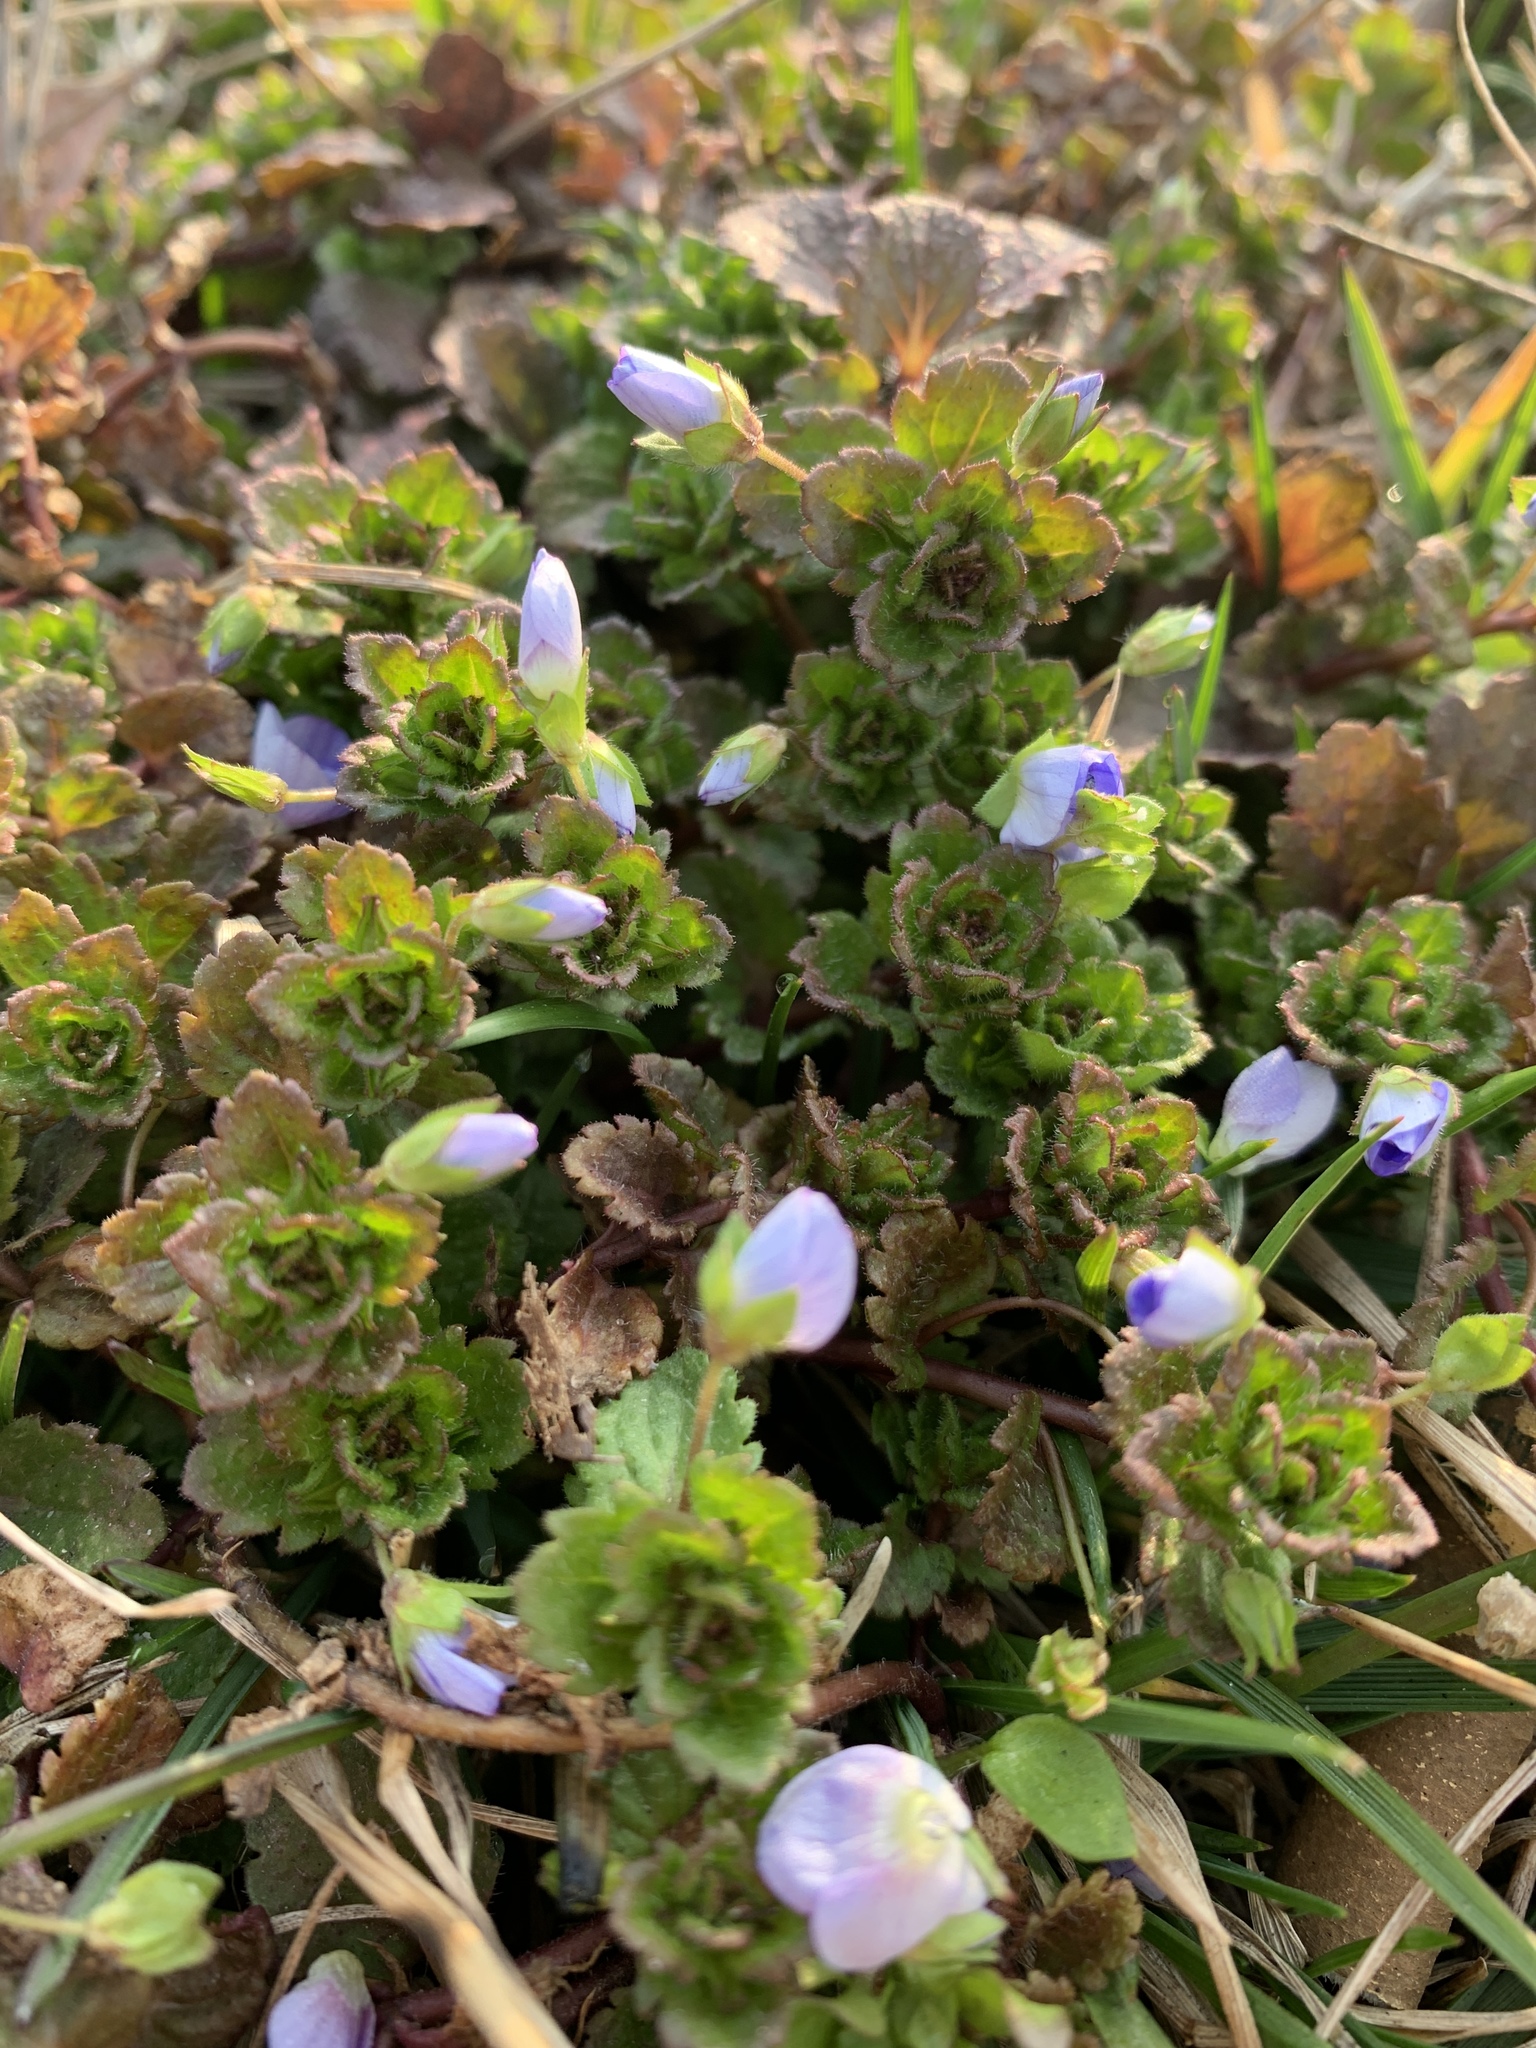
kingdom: Plantae
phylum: Tracheophyta
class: Magnoliopsida
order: Lamiales
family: Plantaginaceae
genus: Veronica
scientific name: Veronica persica
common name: Common field-speedwell
